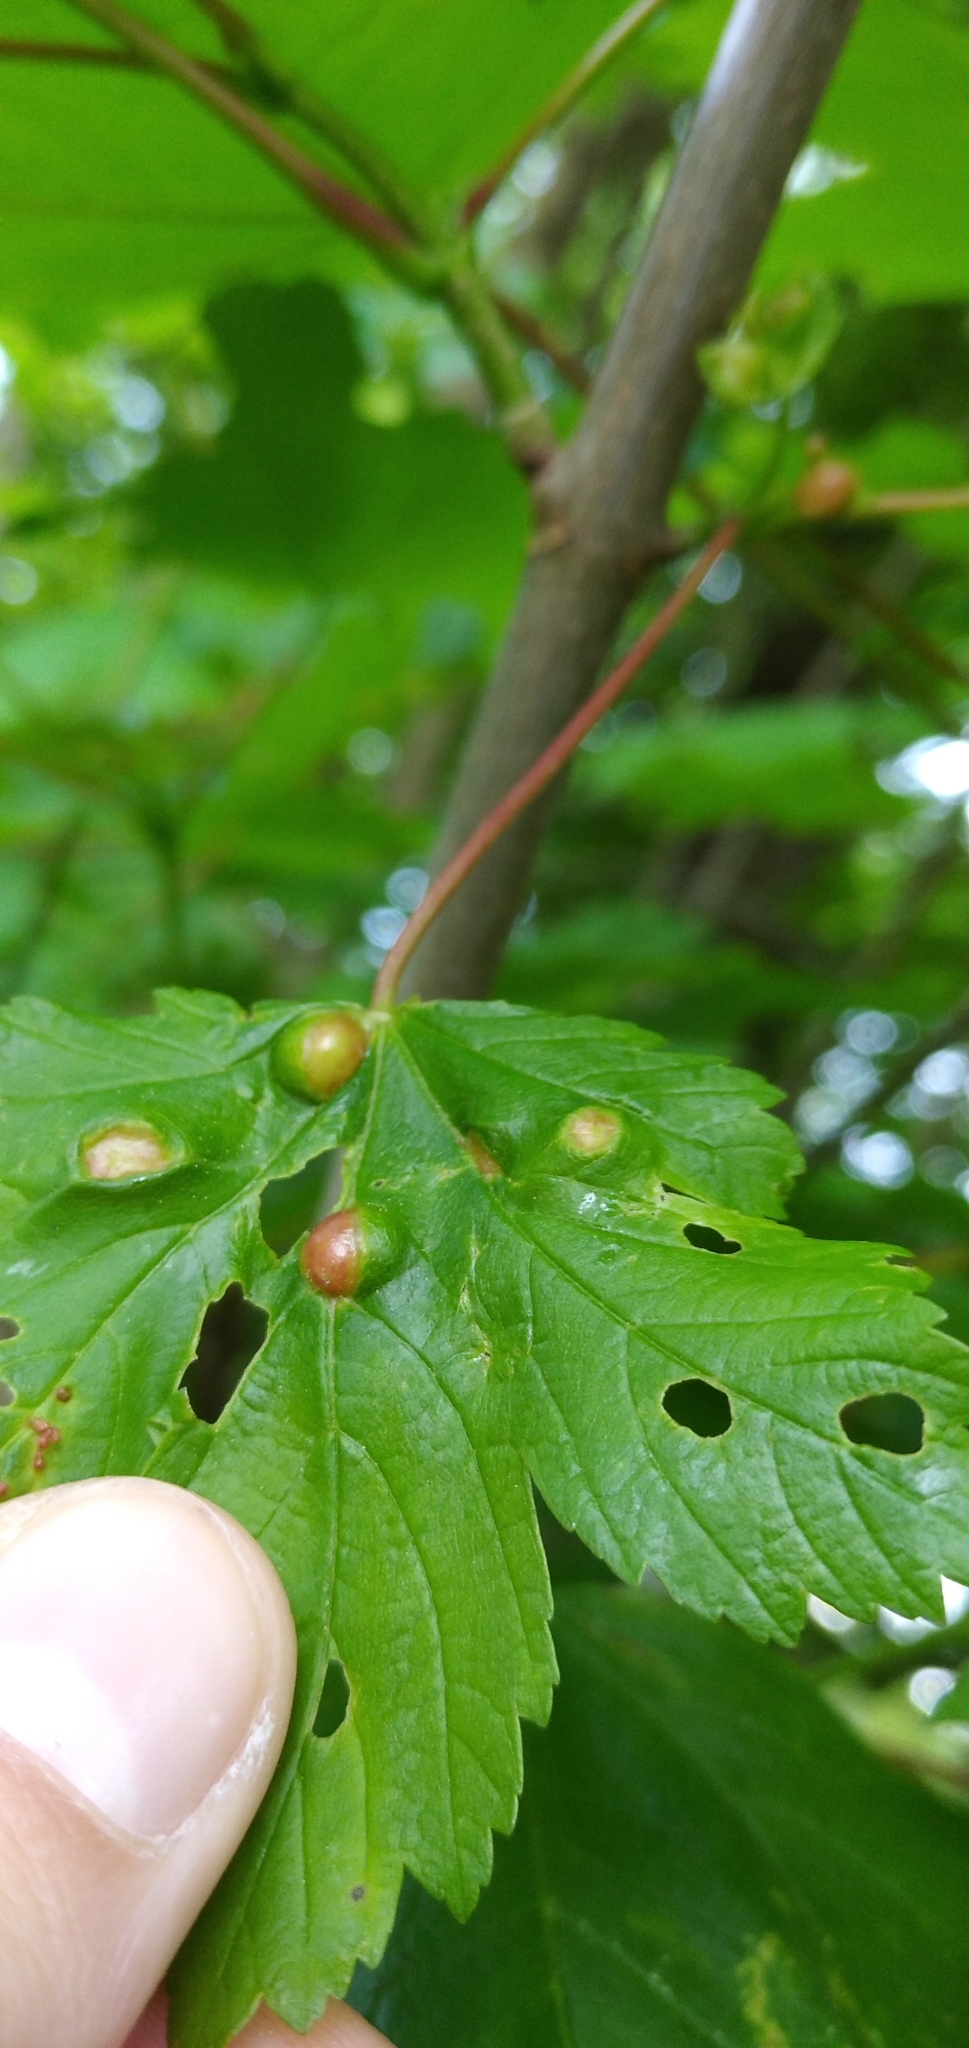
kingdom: Animalia
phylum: Arthropoda
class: Insecta
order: Hymenoptera
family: Cynipidae
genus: Pediaspis
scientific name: Pediaspis aceris
